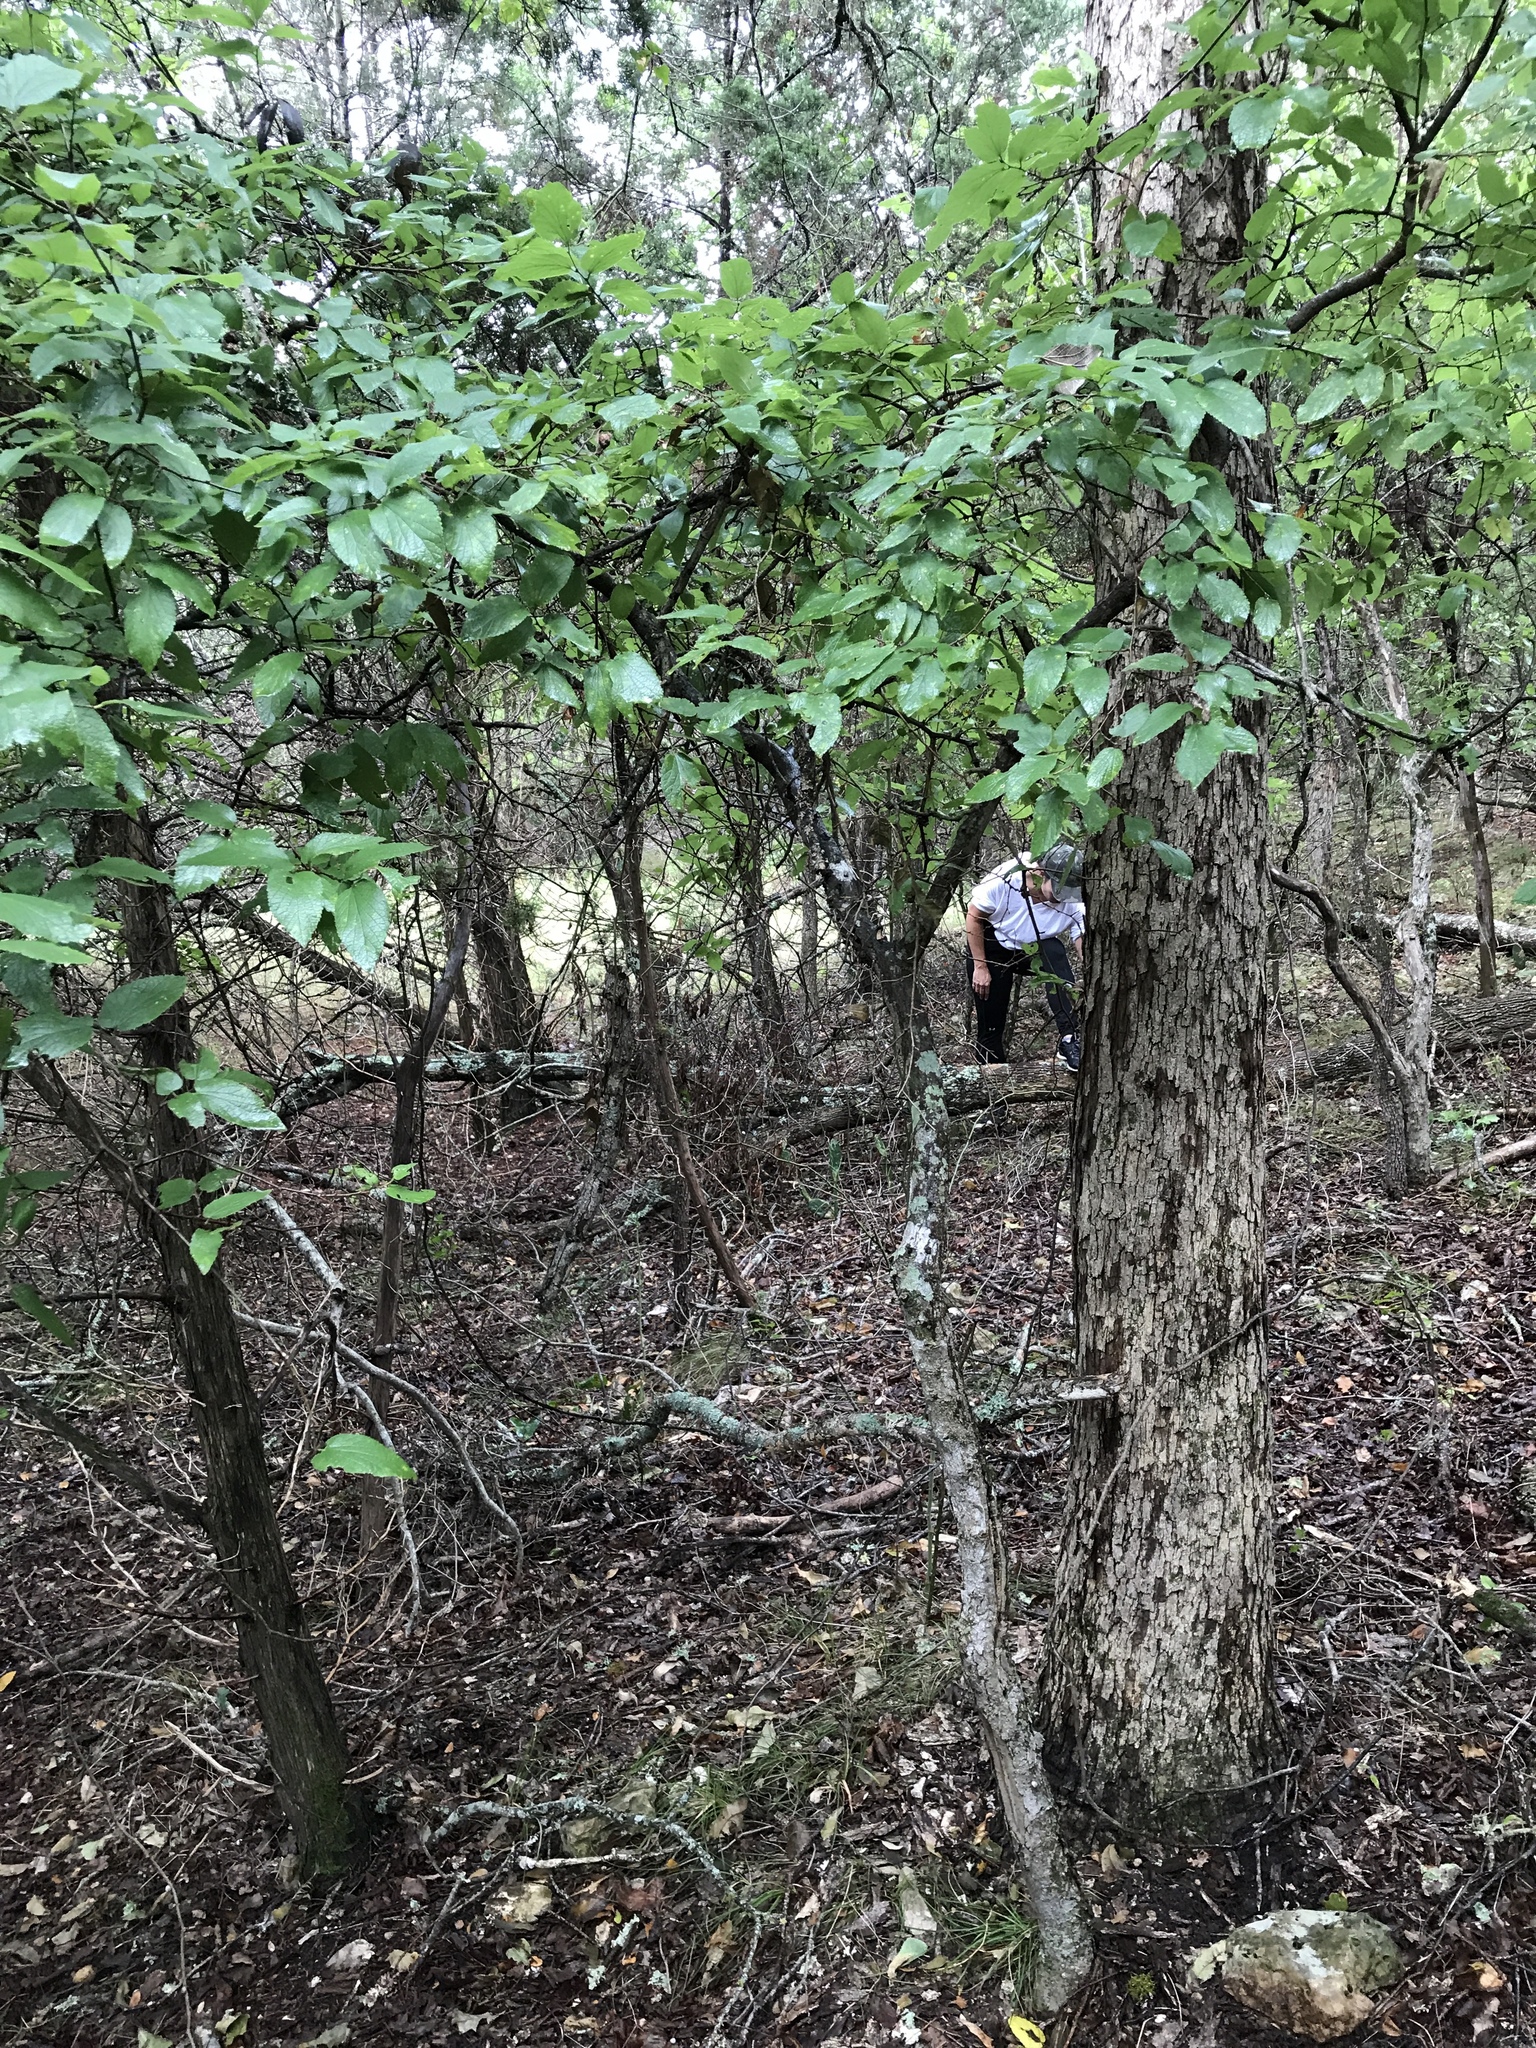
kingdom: Plantae
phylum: Tracheophyta
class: Magnoliopsida
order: Rosales
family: Cannabaceae
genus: Celtis
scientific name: Celtis reticulata
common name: Netleaf hackberry
